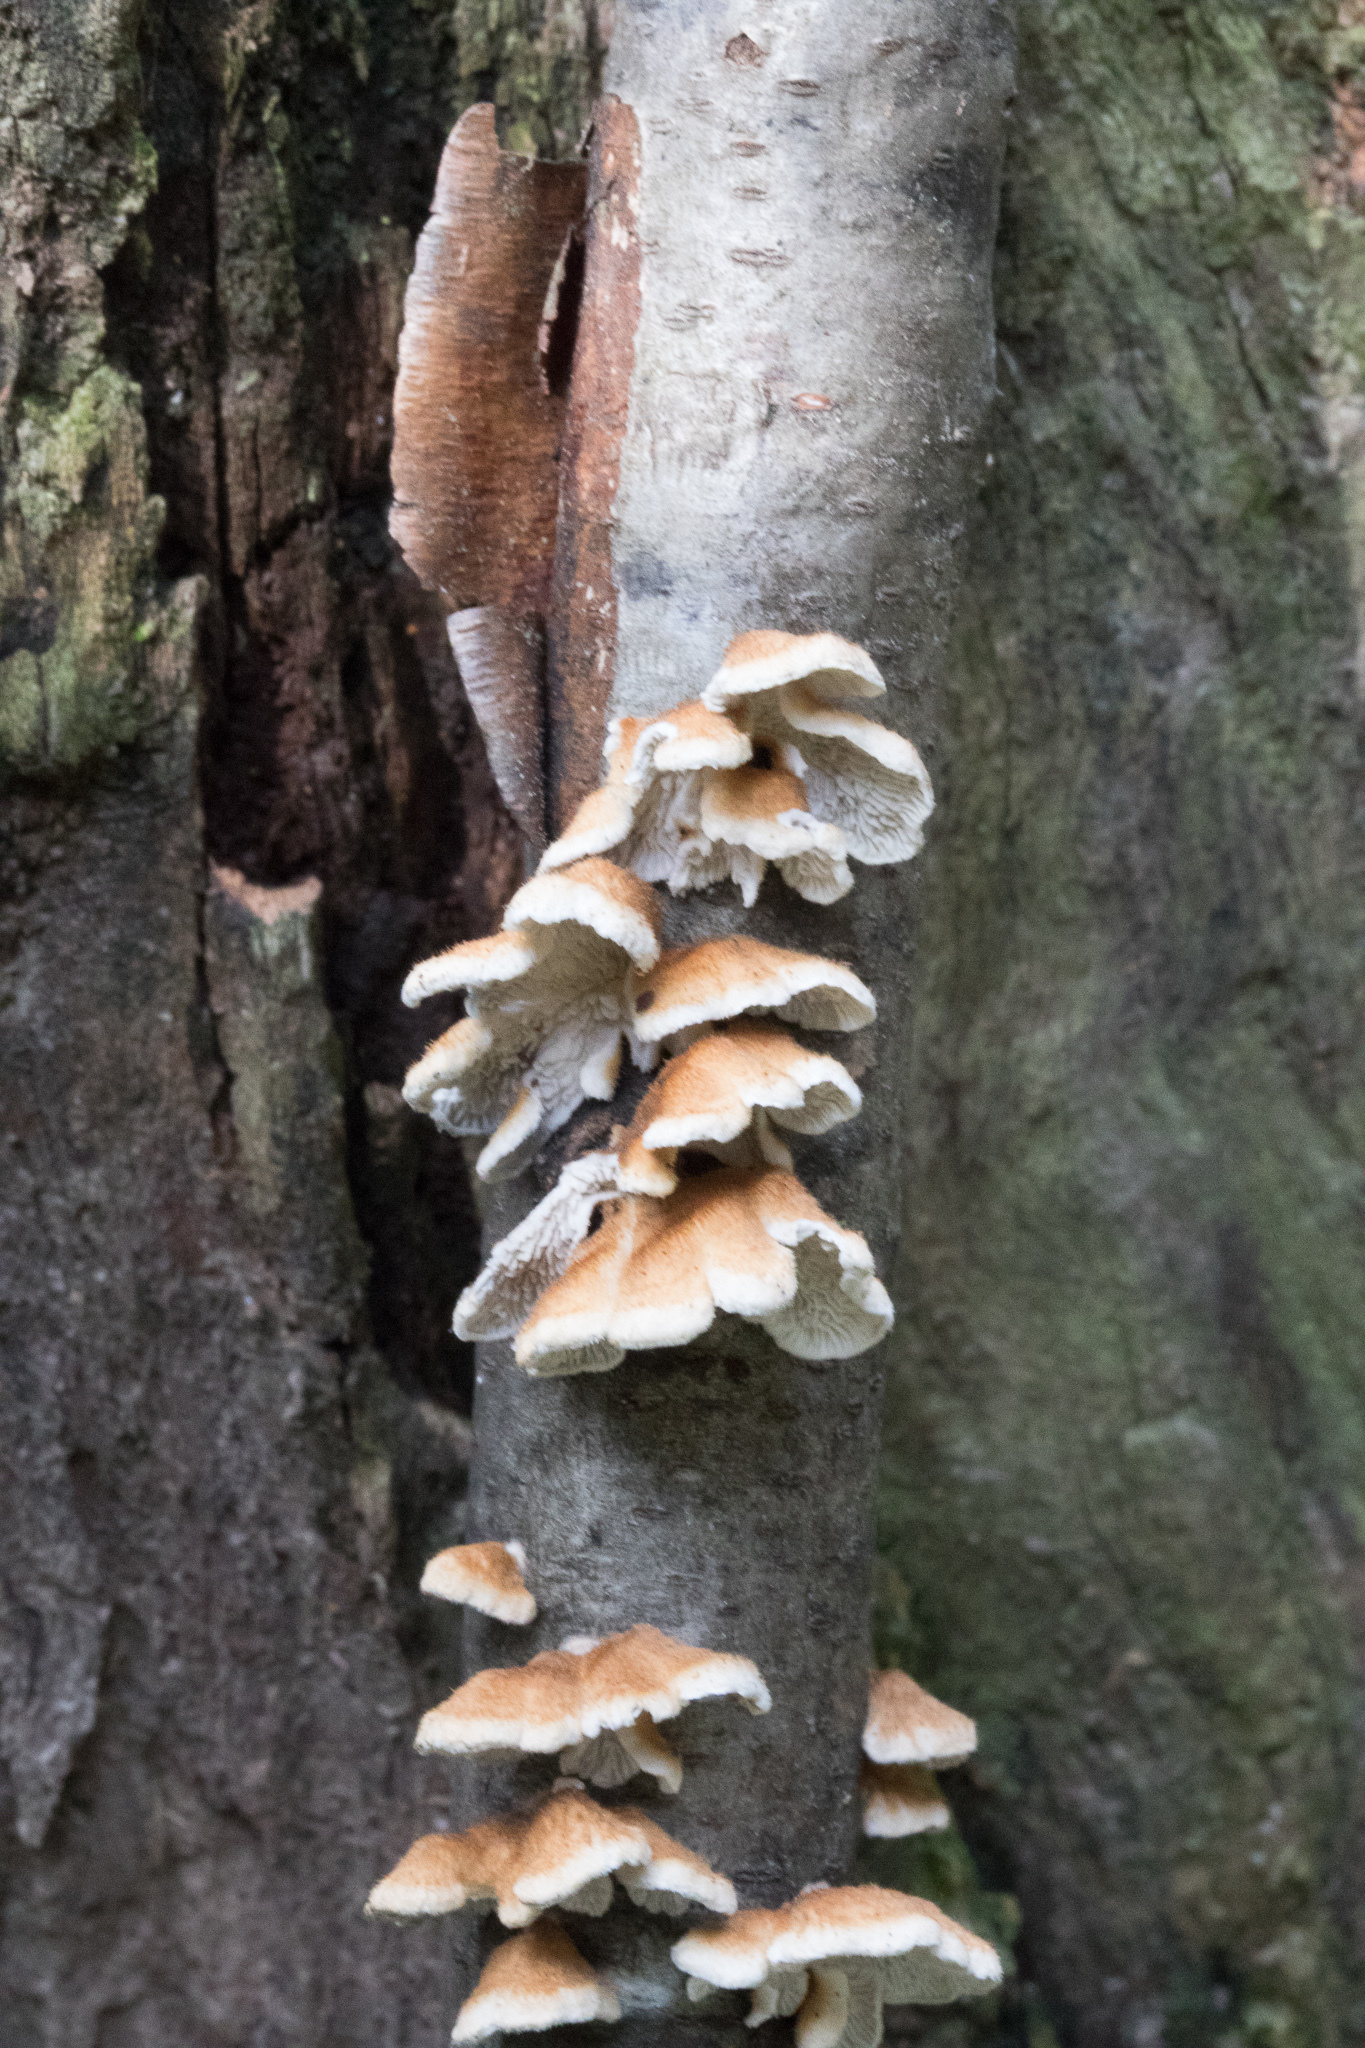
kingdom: Fungi
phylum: Basidiomycota
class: Agaricomycetes
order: Amylocorticiales
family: Amylocorticiaceae
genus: Plicaturopsis
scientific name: Plicaturopsis crispa
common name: Crimped gill
